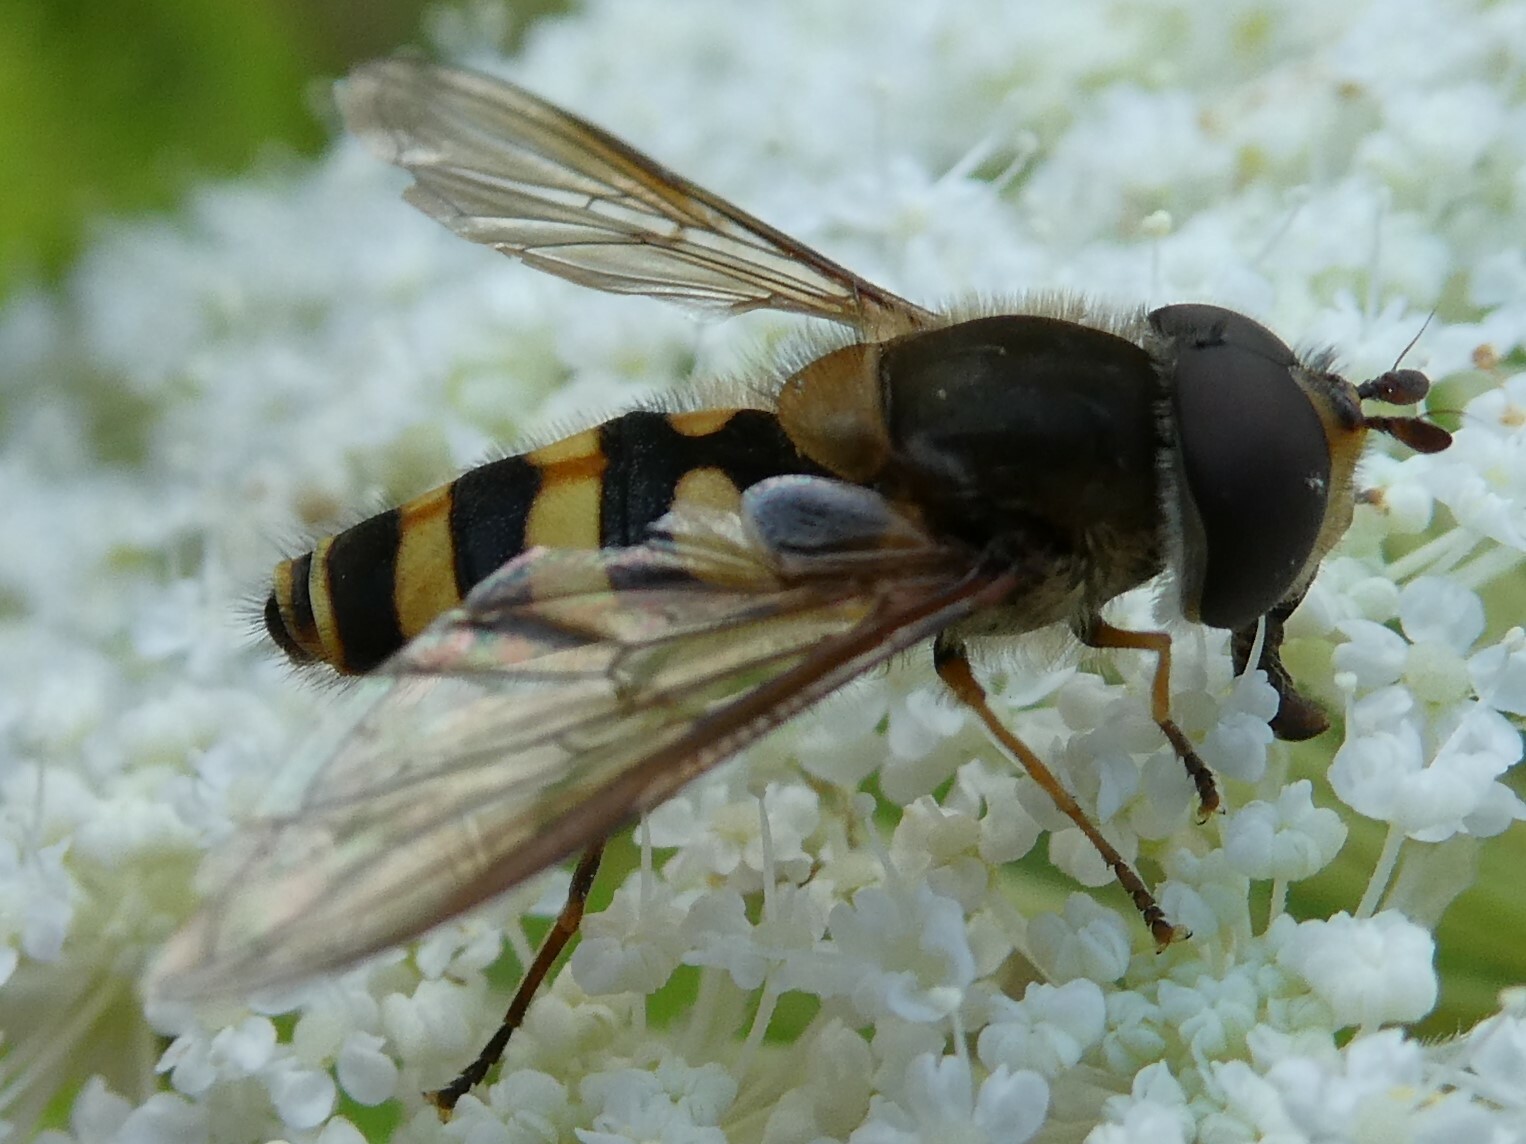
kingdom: Animalia
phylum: Arthropoda
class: Insecta
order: Diptera
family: Syrphidae
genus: Syrphus
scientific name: Syrphus torvus
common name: Hairy-eyed flower fly
